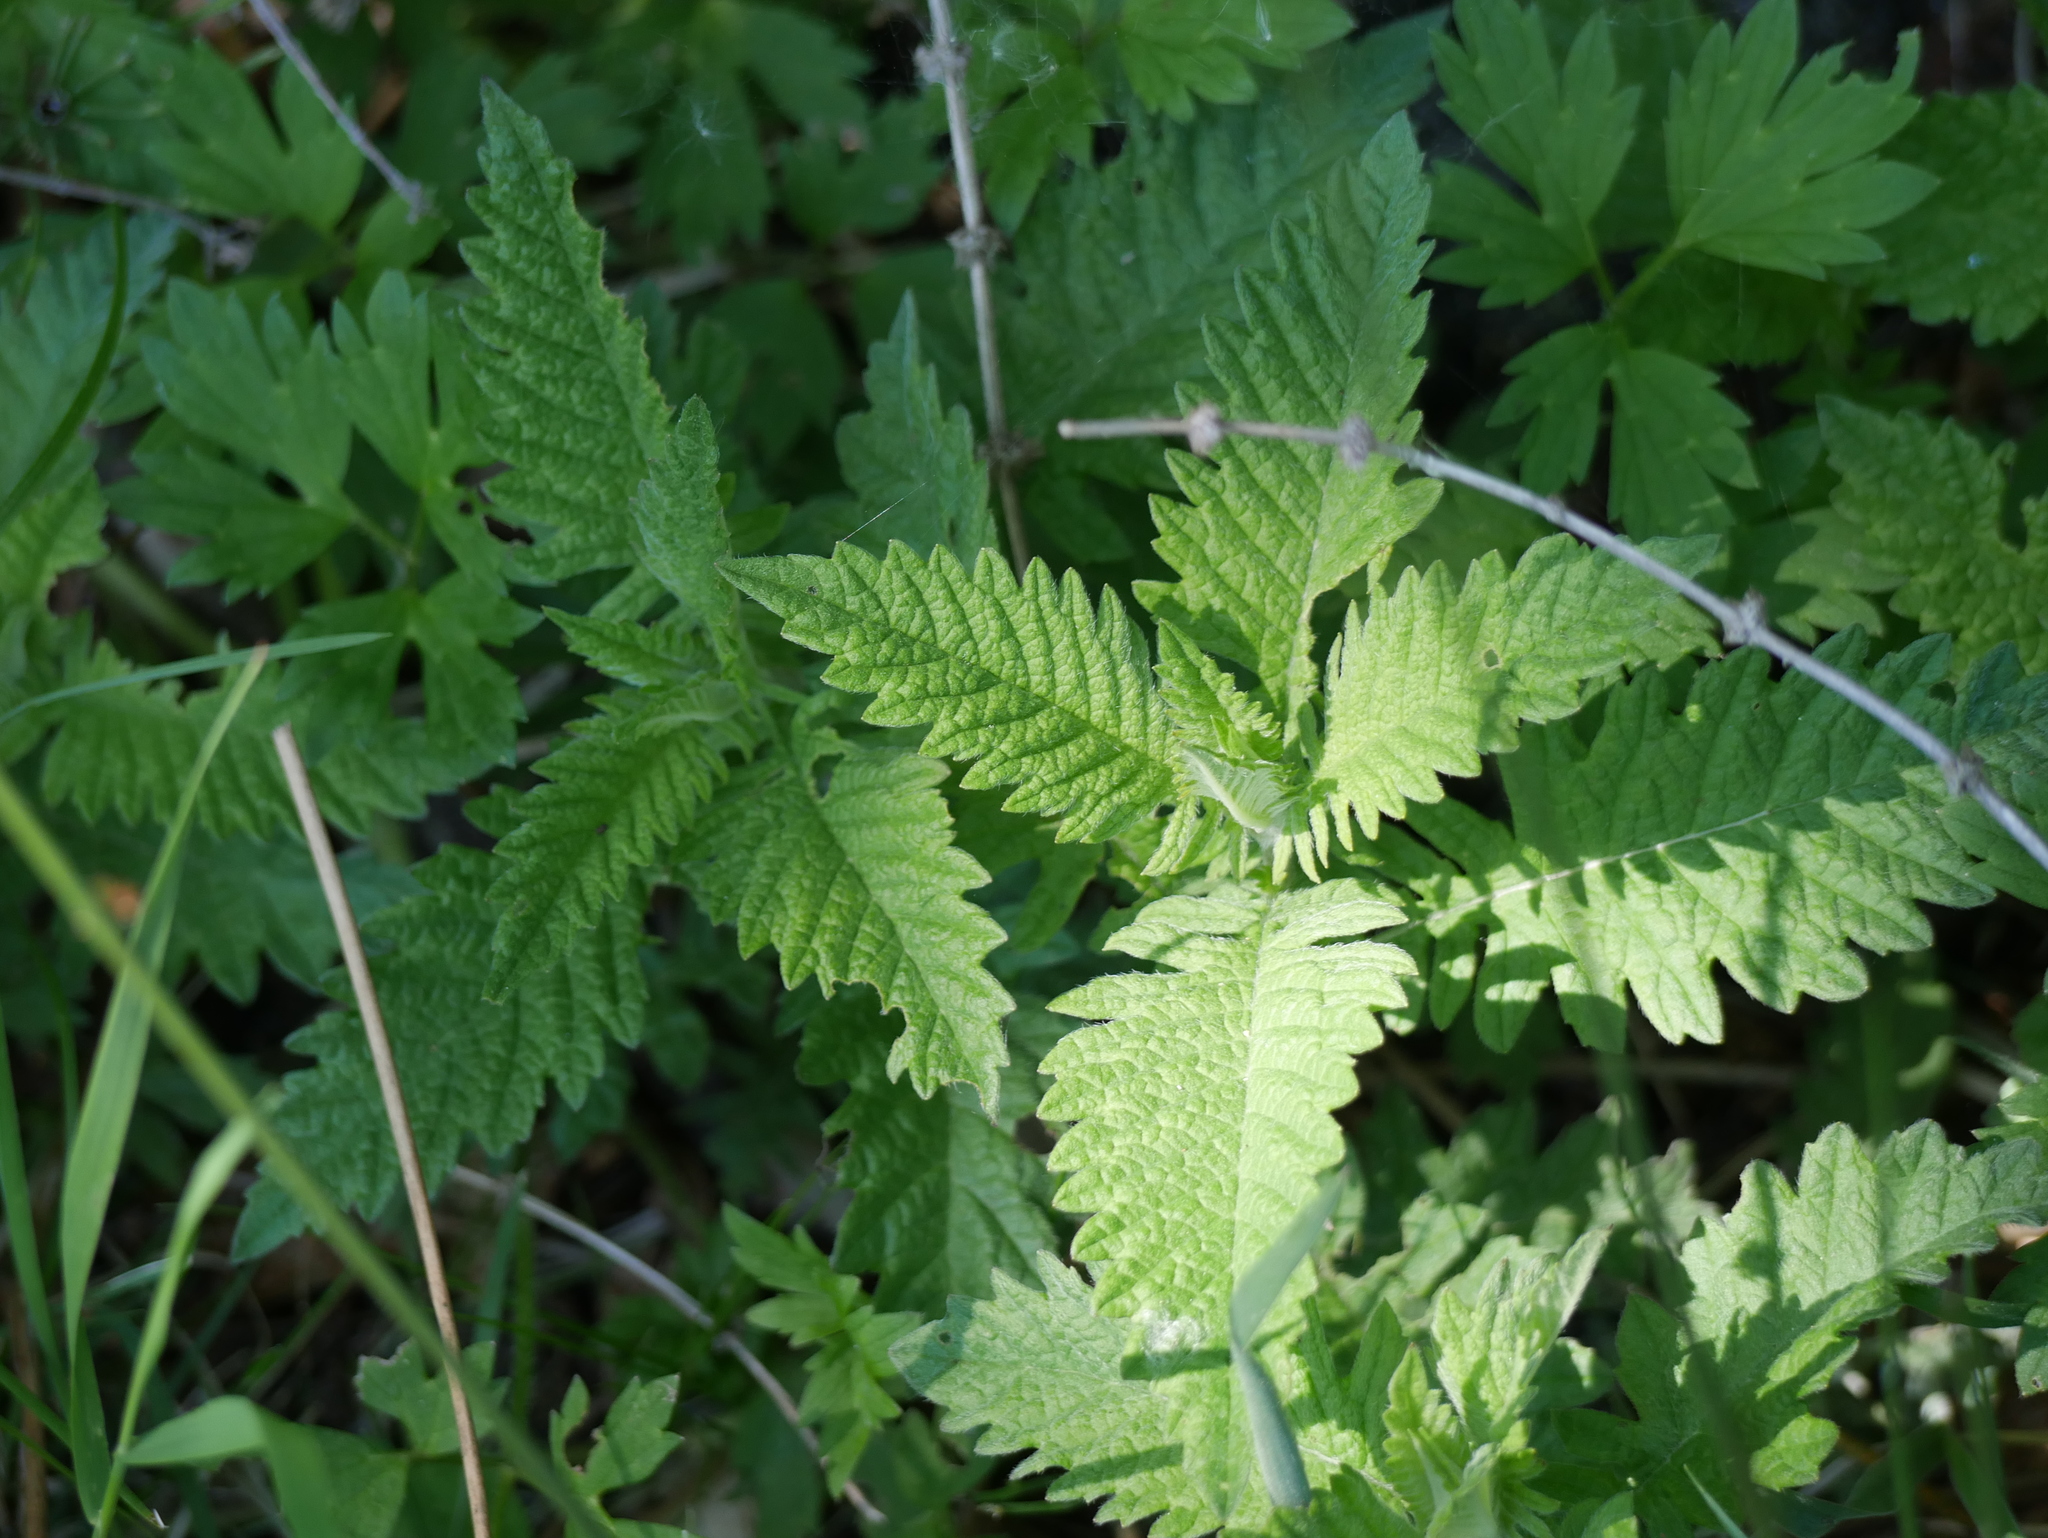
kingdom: Plantae
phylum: Tracheophyta
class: Magnoliopsida
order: Lamiales
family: Lamiaceae
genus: Lycopus
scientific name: Lycopus europaeus
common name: European bugleweed
